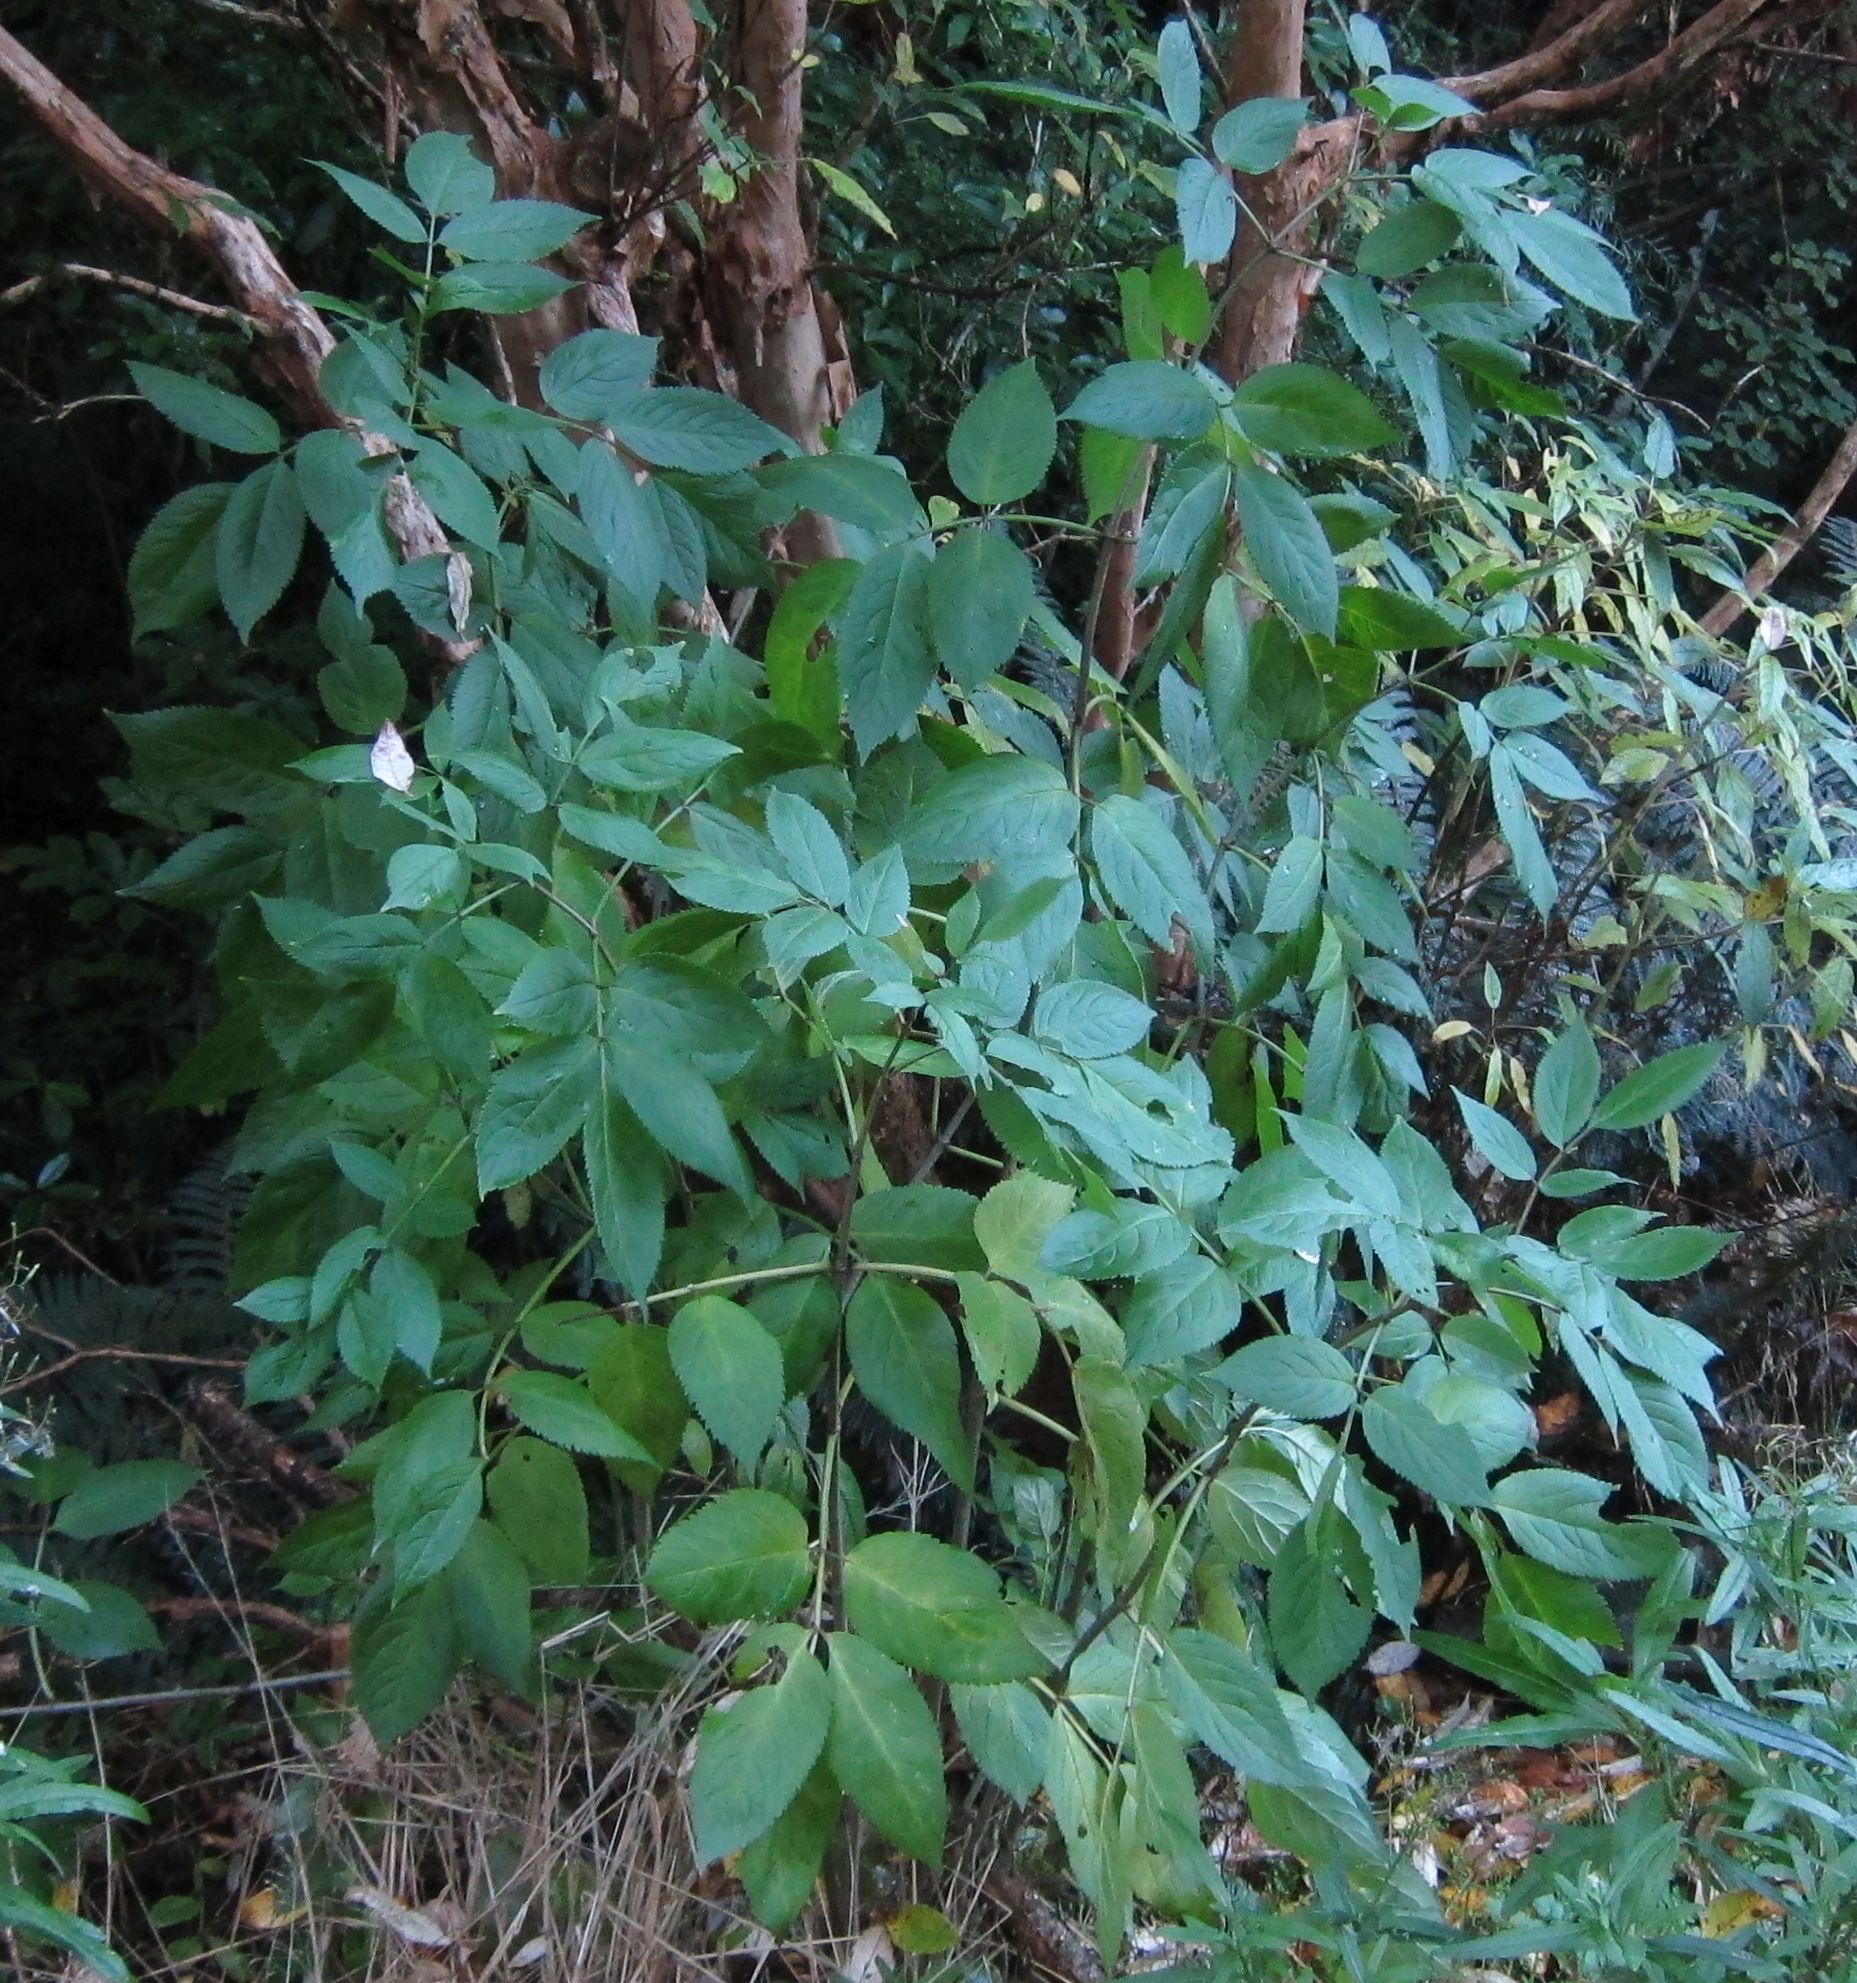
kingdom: Plantae
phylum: Tracheophyta
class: Magnoliopsida
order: Dipsacales
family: Viburnaceae
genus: Sambucus
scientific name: Sambucus nigra
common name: Elder
